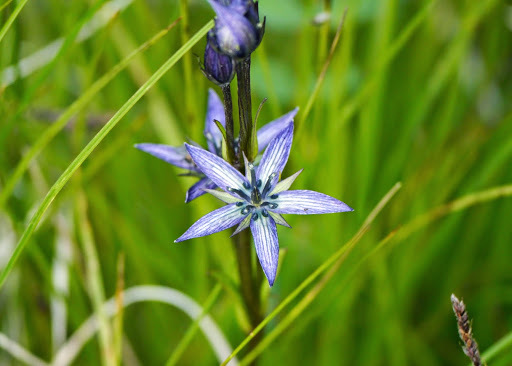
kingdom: Plantae
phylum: Tracheophyta
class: Magnoliopsida
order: Gentianales
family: Gentianaceae
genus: Swertia
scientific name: Swertia perennis
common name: Alpine bog swertia
